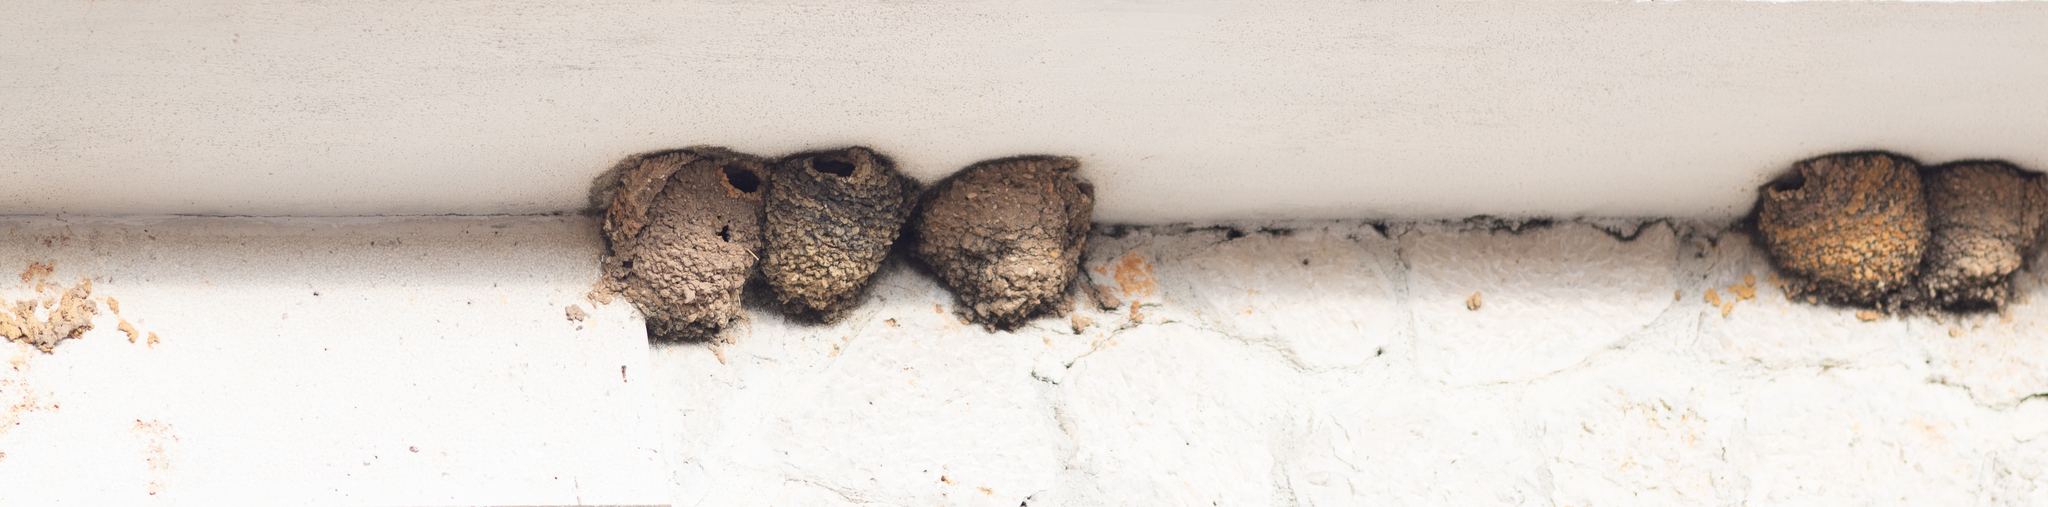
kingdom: Animalia
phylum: Chordata
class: Aves
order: Passeriformes
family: Hirundinidae
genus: Delichon
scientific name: Delichon urbicum
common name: Common house martin
